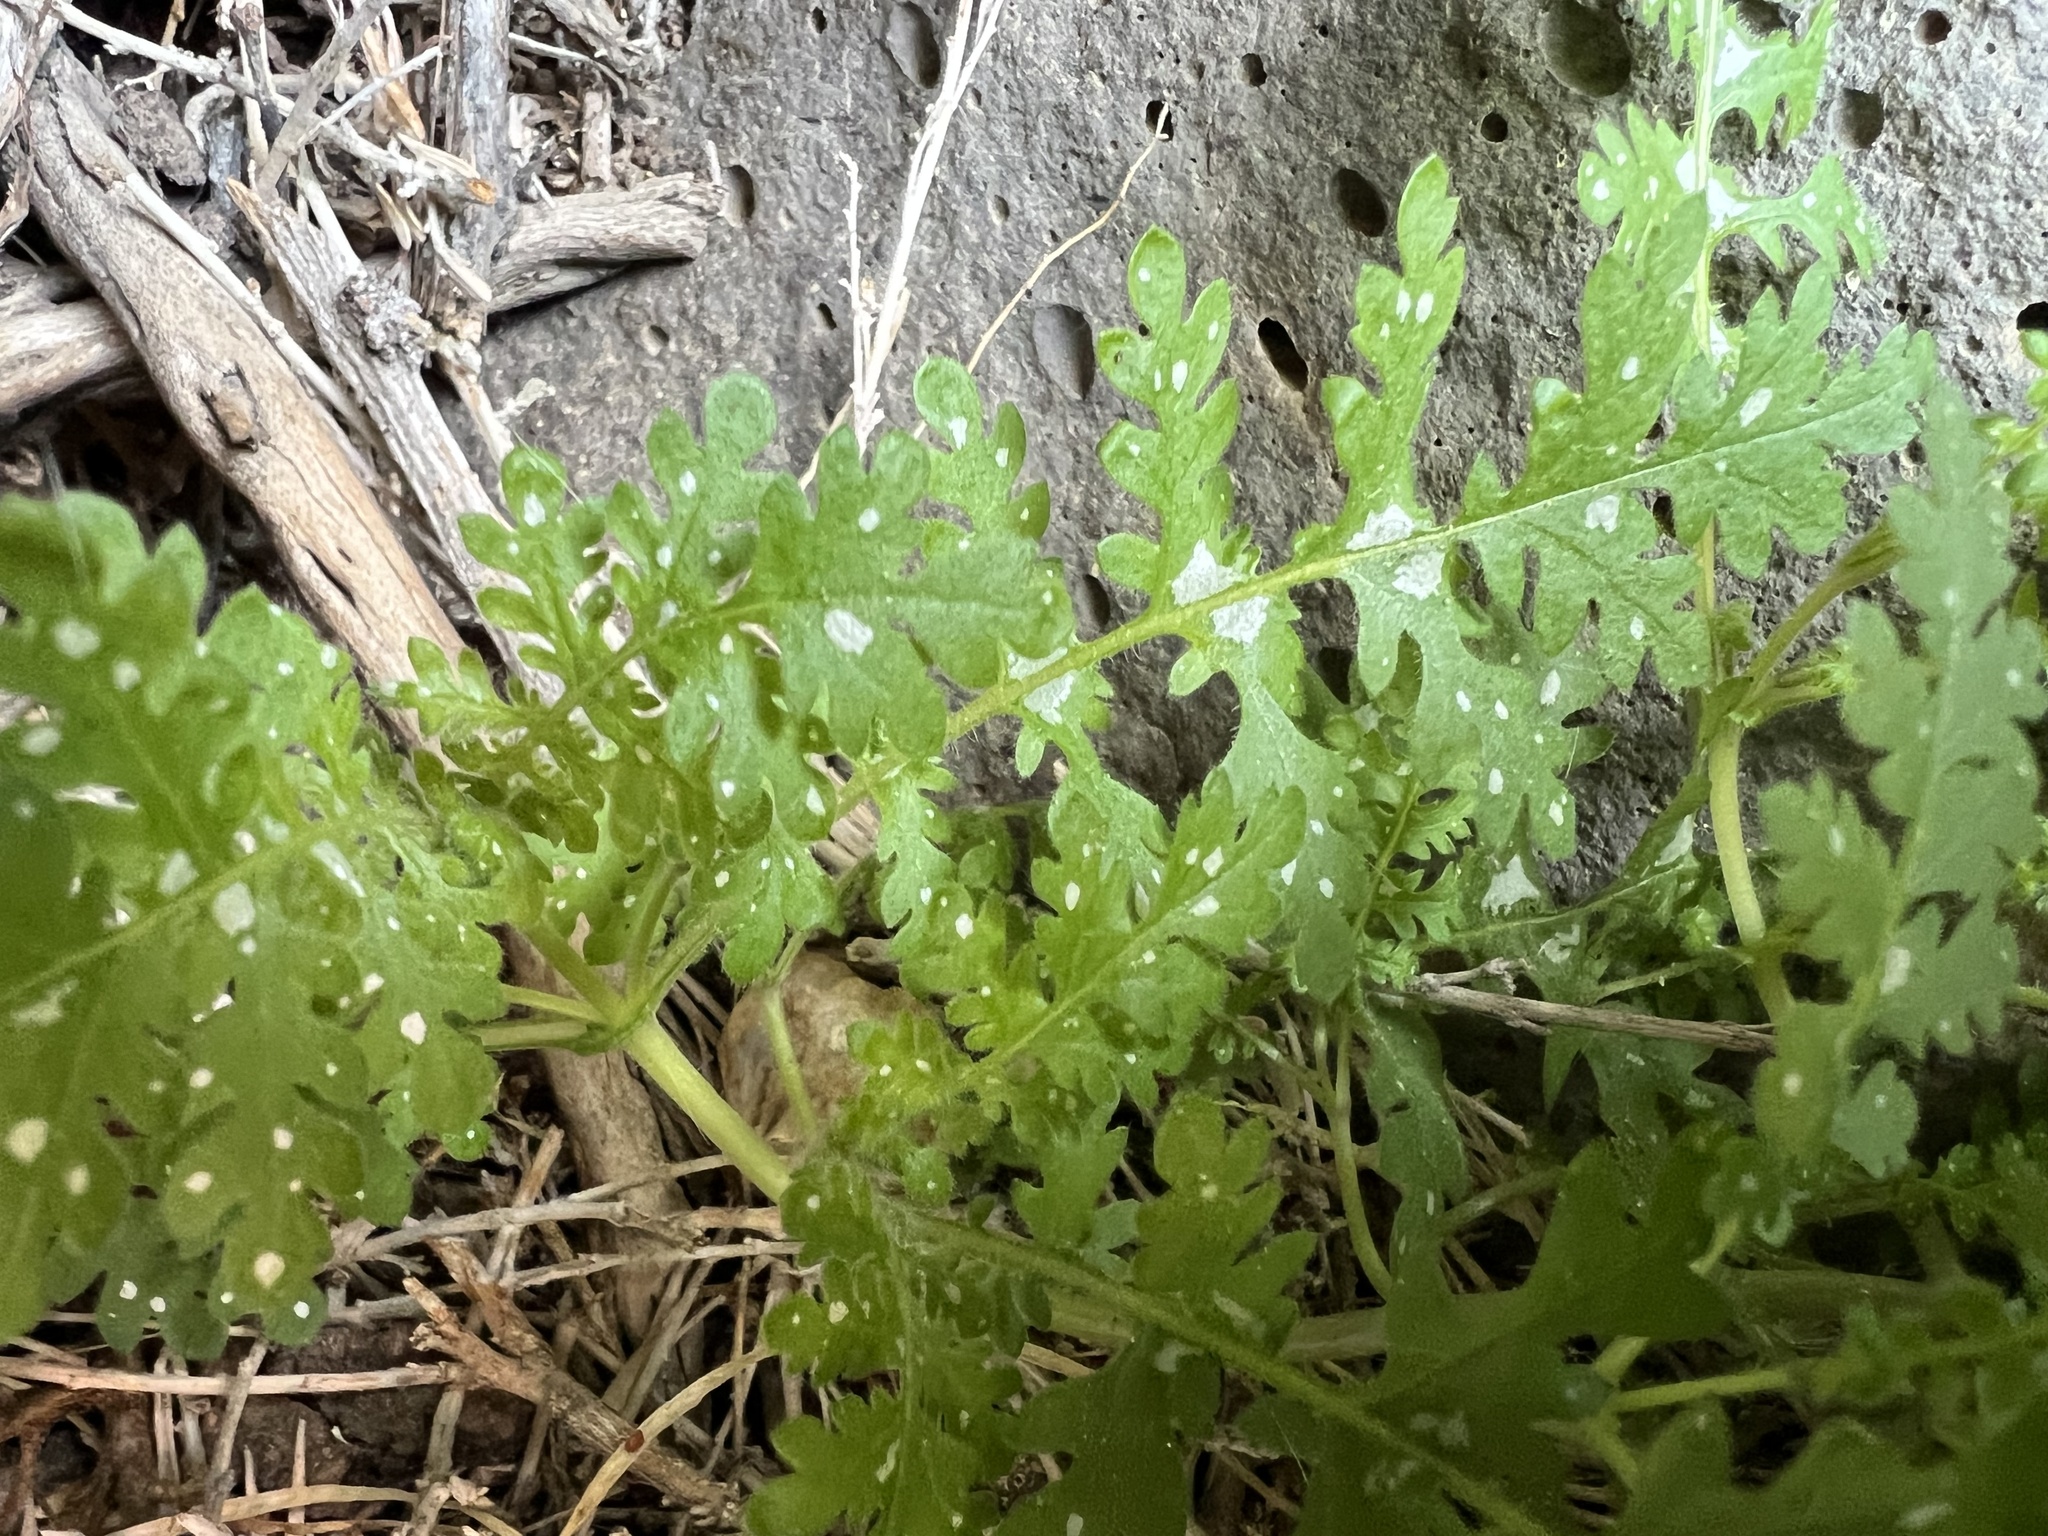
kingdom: Plantae
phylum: Tracheophyta
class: Magnoliopsida
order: Boraginales
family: Hydrophyllaceae
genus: Eucrypta
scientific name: Eucrypta chrysanthemifolia
